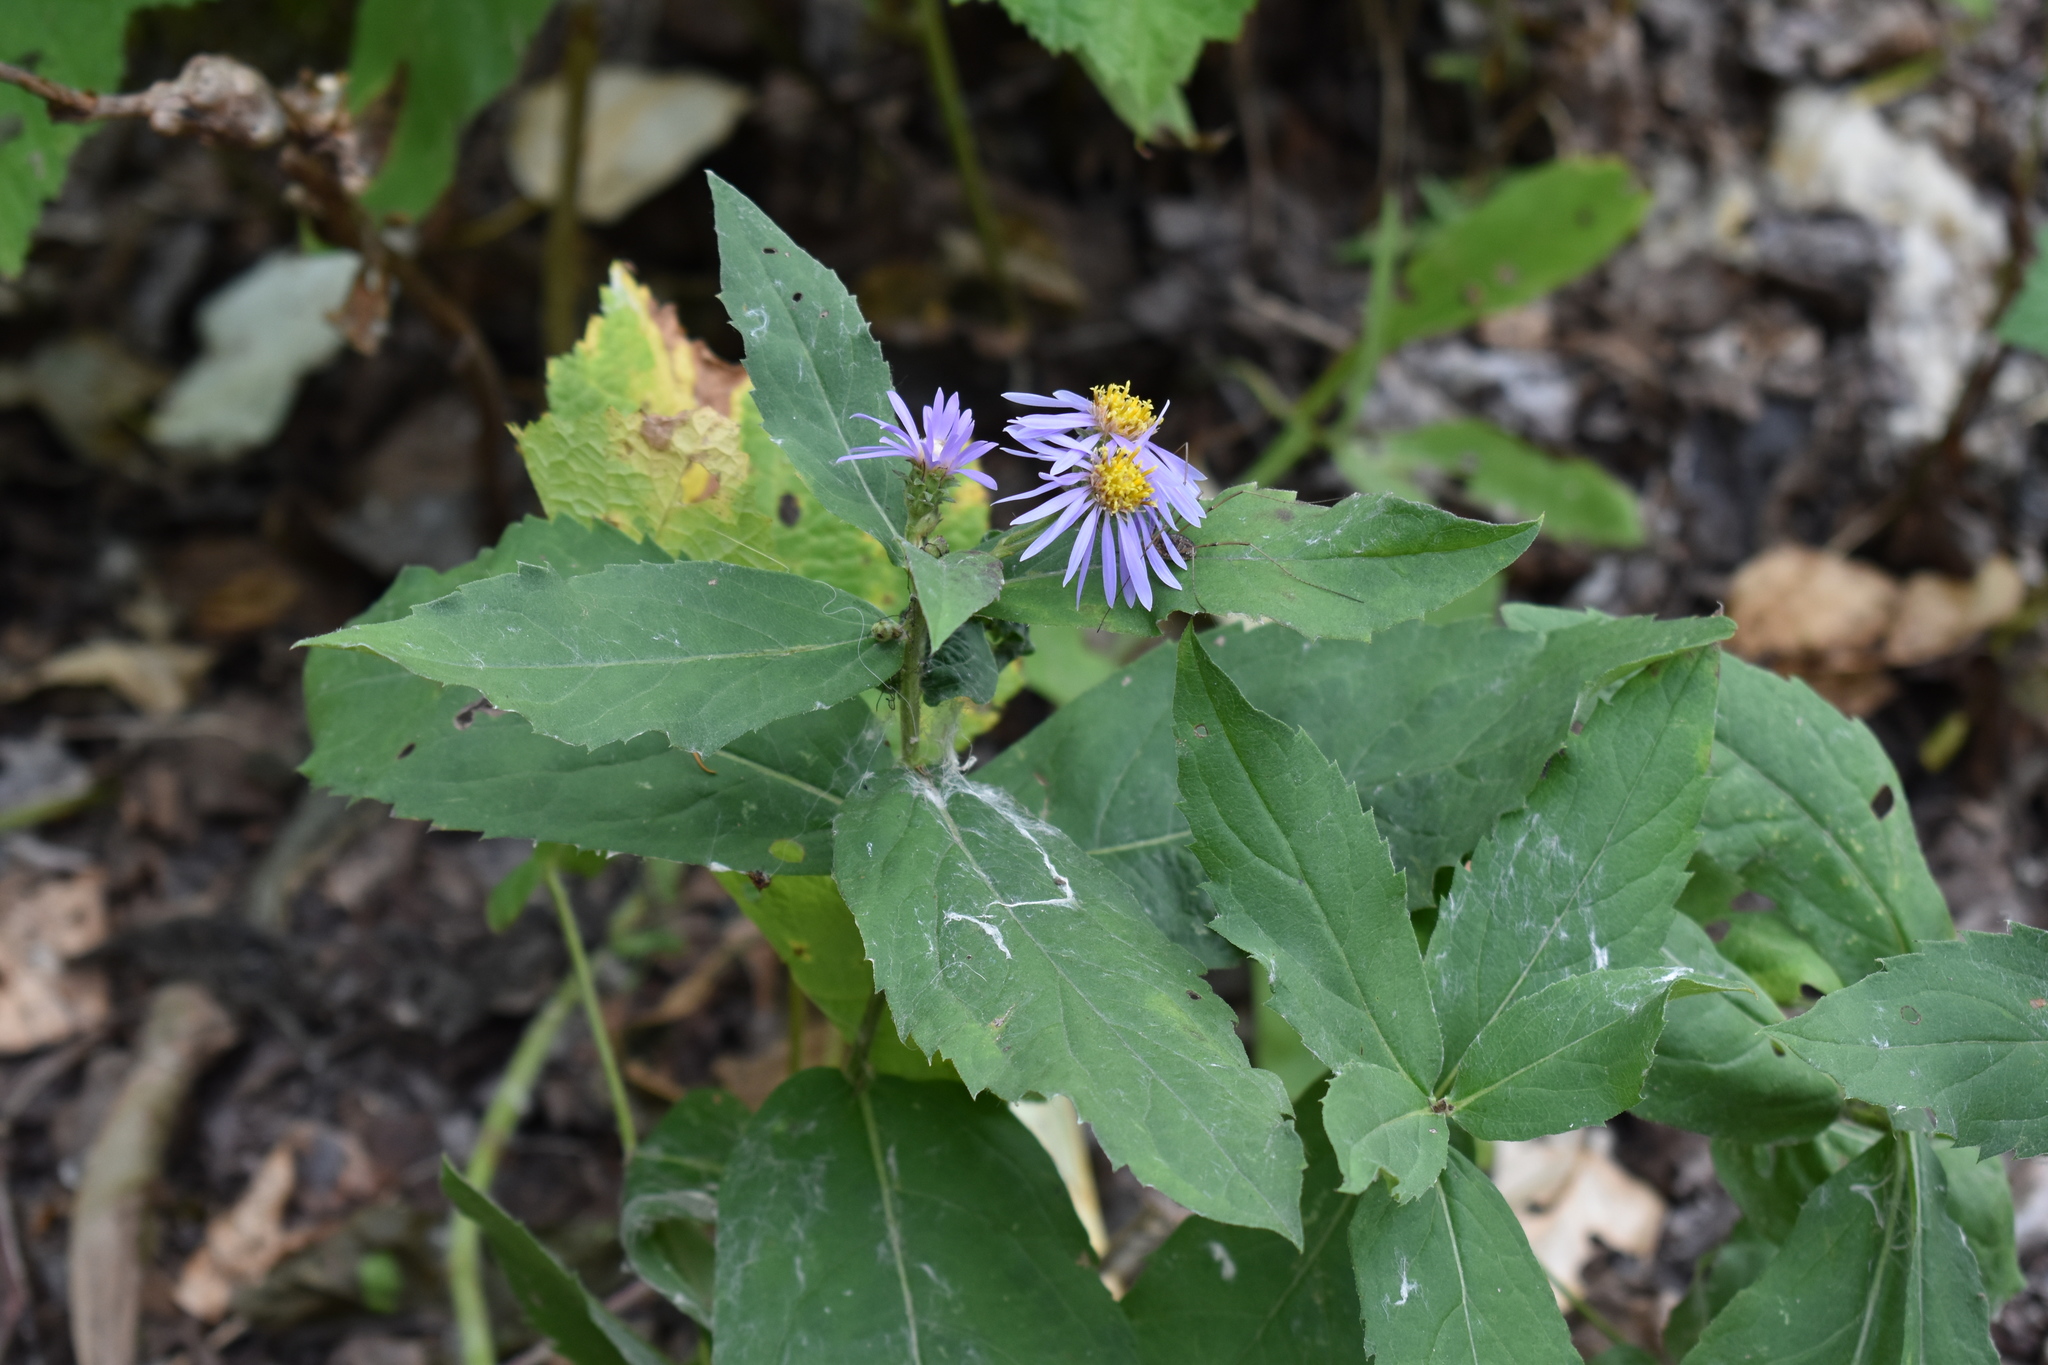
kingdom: Plantae
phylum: Tracheophyta
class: Magnoliopsida
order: Asterales
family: Asteraceae
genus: Eurybia
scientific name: Eurybia conspicua
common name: Showy aster
